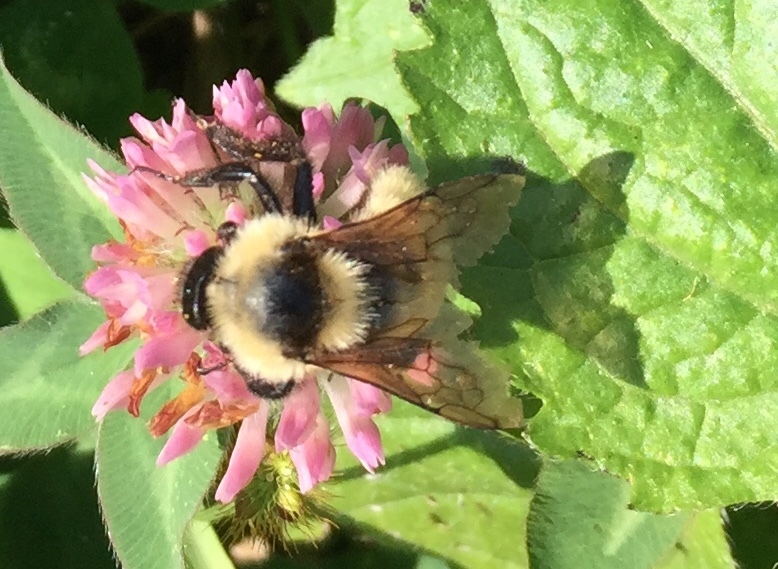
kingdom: Animalia
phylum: Arthropoda
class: Insecta
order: Hymenoptera
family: Apidae
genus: Bombus
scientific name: Bombus fervidus
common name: Yellow bumble bee
